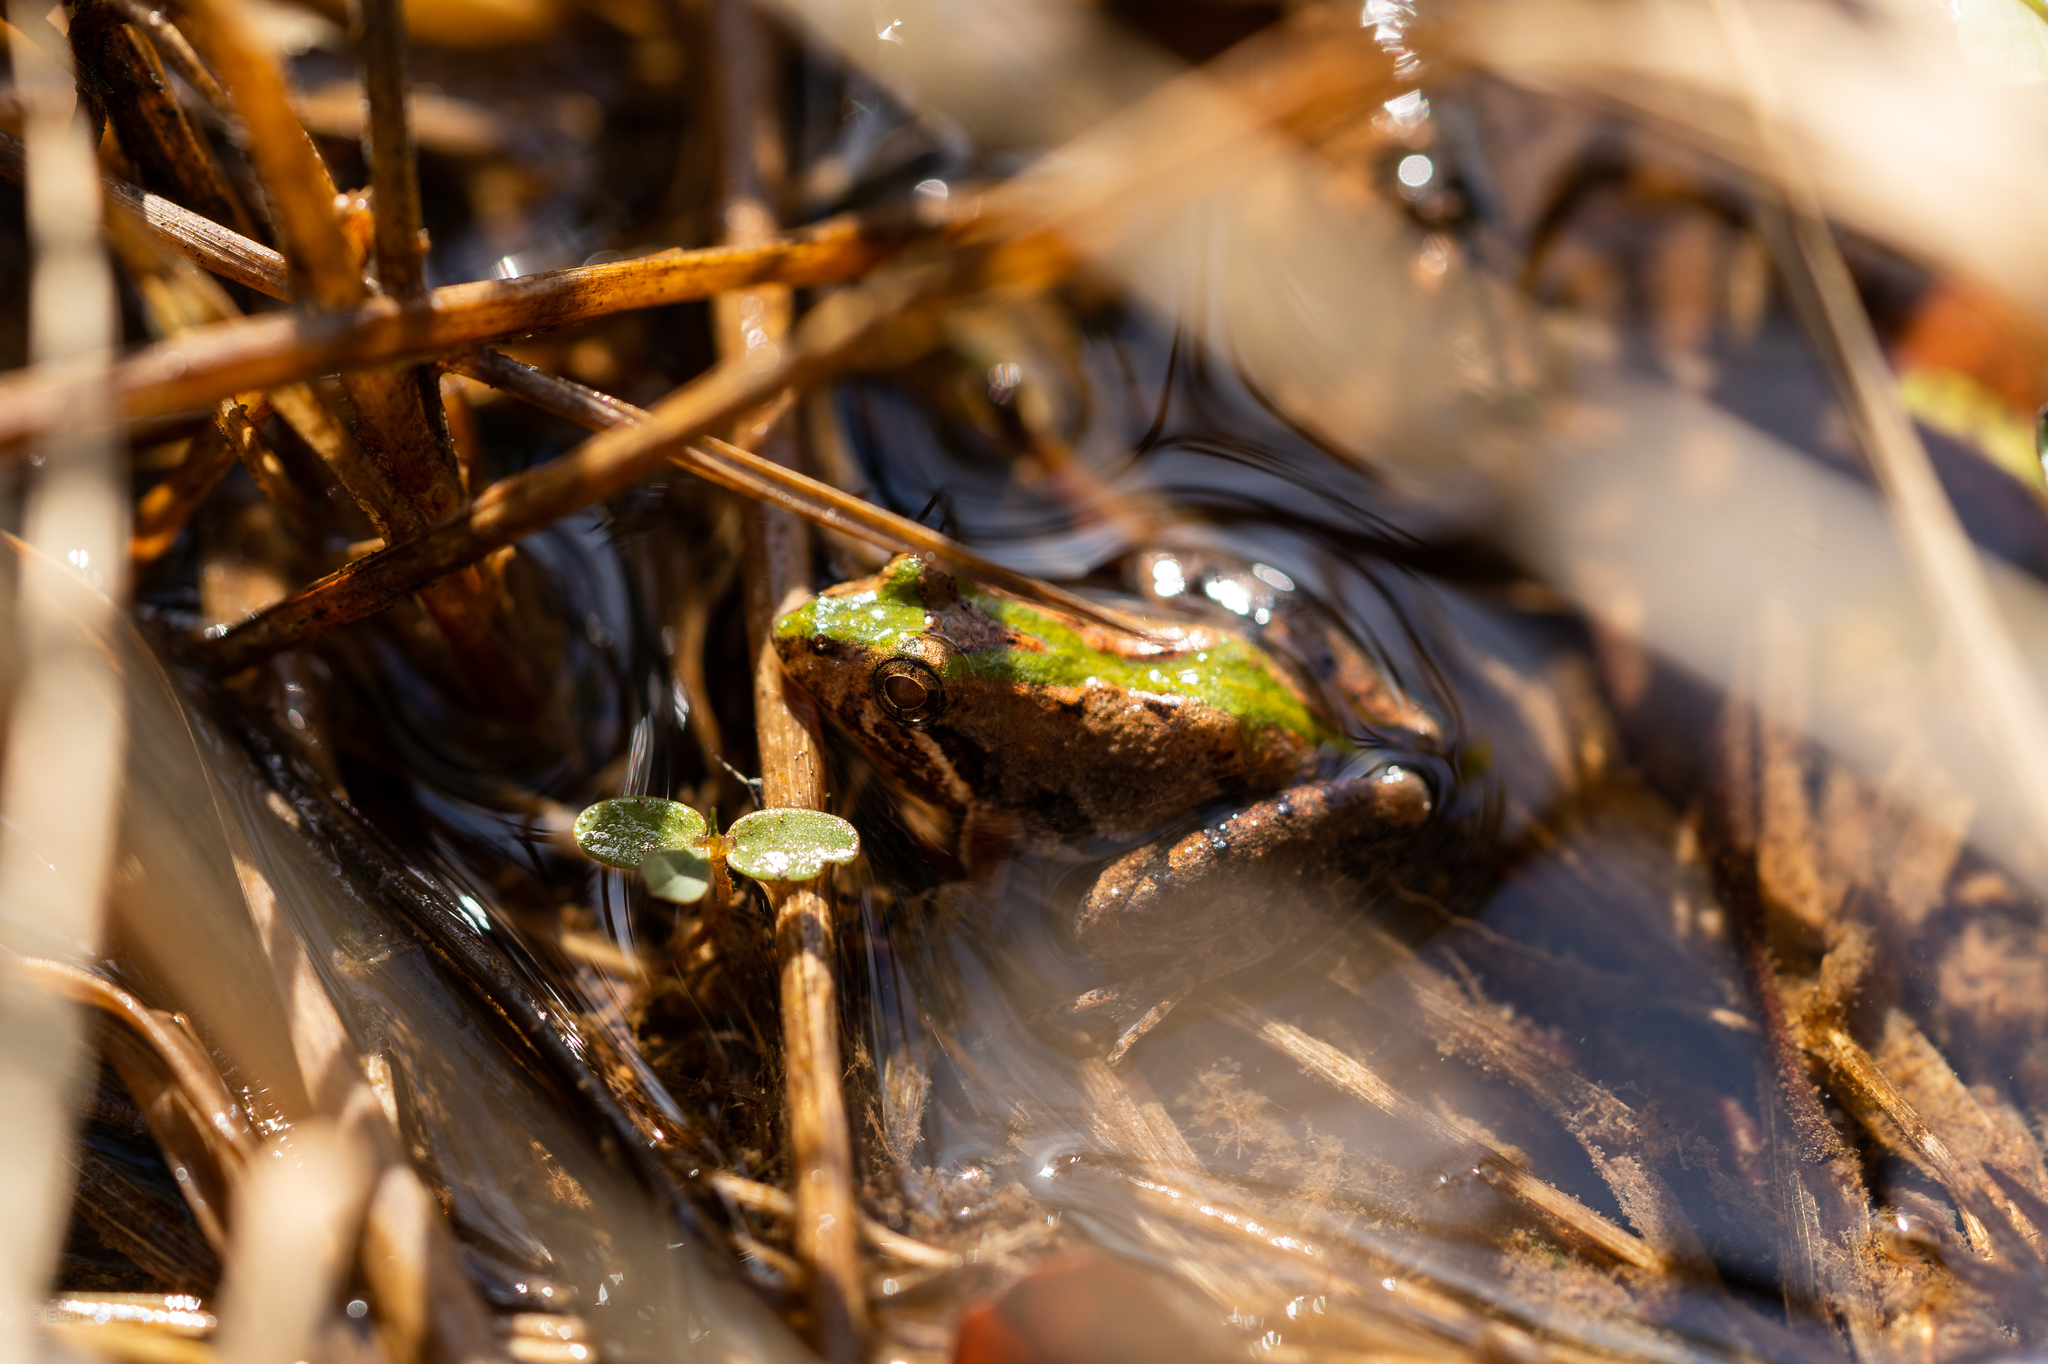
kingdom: Animalia
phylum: Chordata
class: Amphibia
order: Anura
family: Hylidae
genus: Acris
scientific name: Acris gryllus
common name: Southern cricket frog
